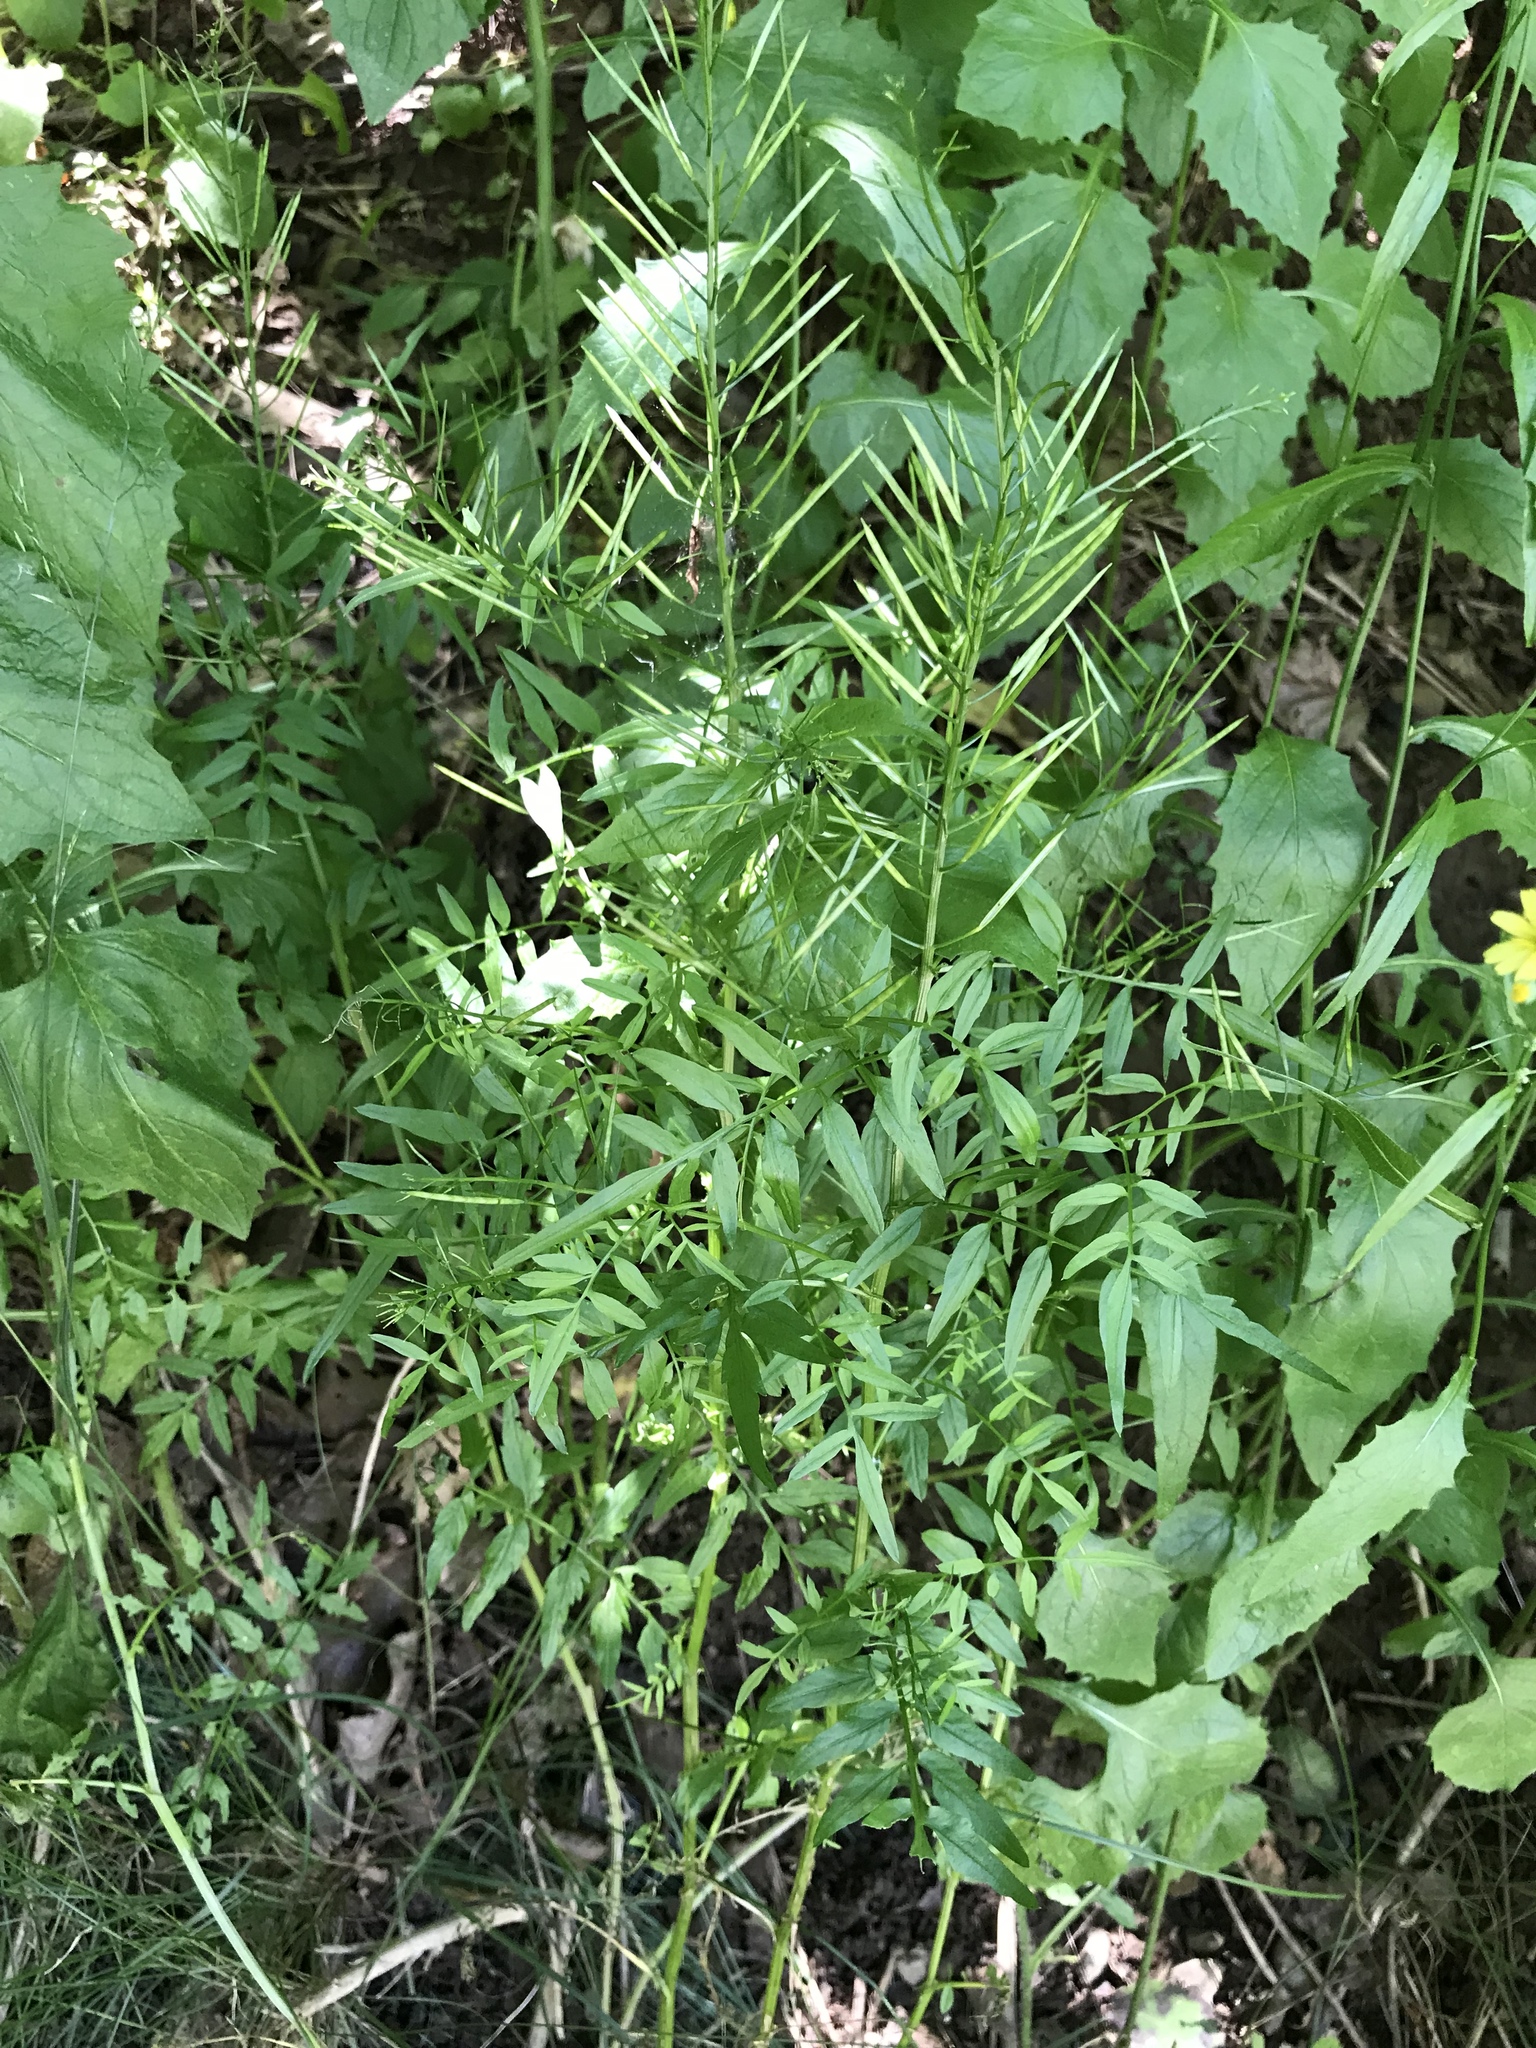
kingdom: Plantae
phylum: Tracheophyta
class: Magnoliopsida
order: Brassicales
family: Brassicaceae
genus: Cardamine
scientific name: Cardamine impatiens
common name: Narrow-leaved bitter-cress
